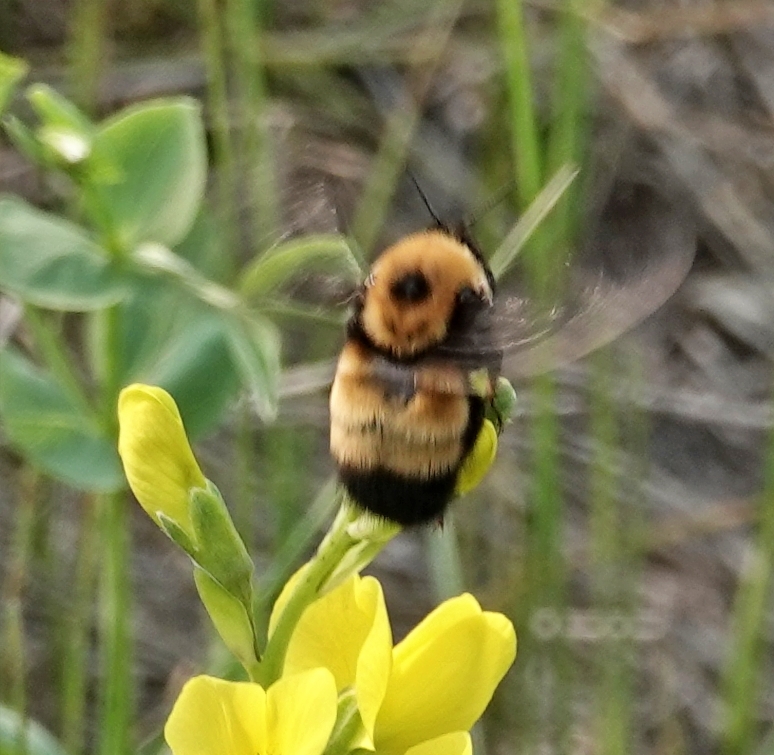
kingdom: Animalia
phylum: Arthropoda
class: Insecta
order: Hymenoptera
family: Apidae
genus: Bombus
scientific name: Bombus nevadensis
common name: Nevada bumble bee
